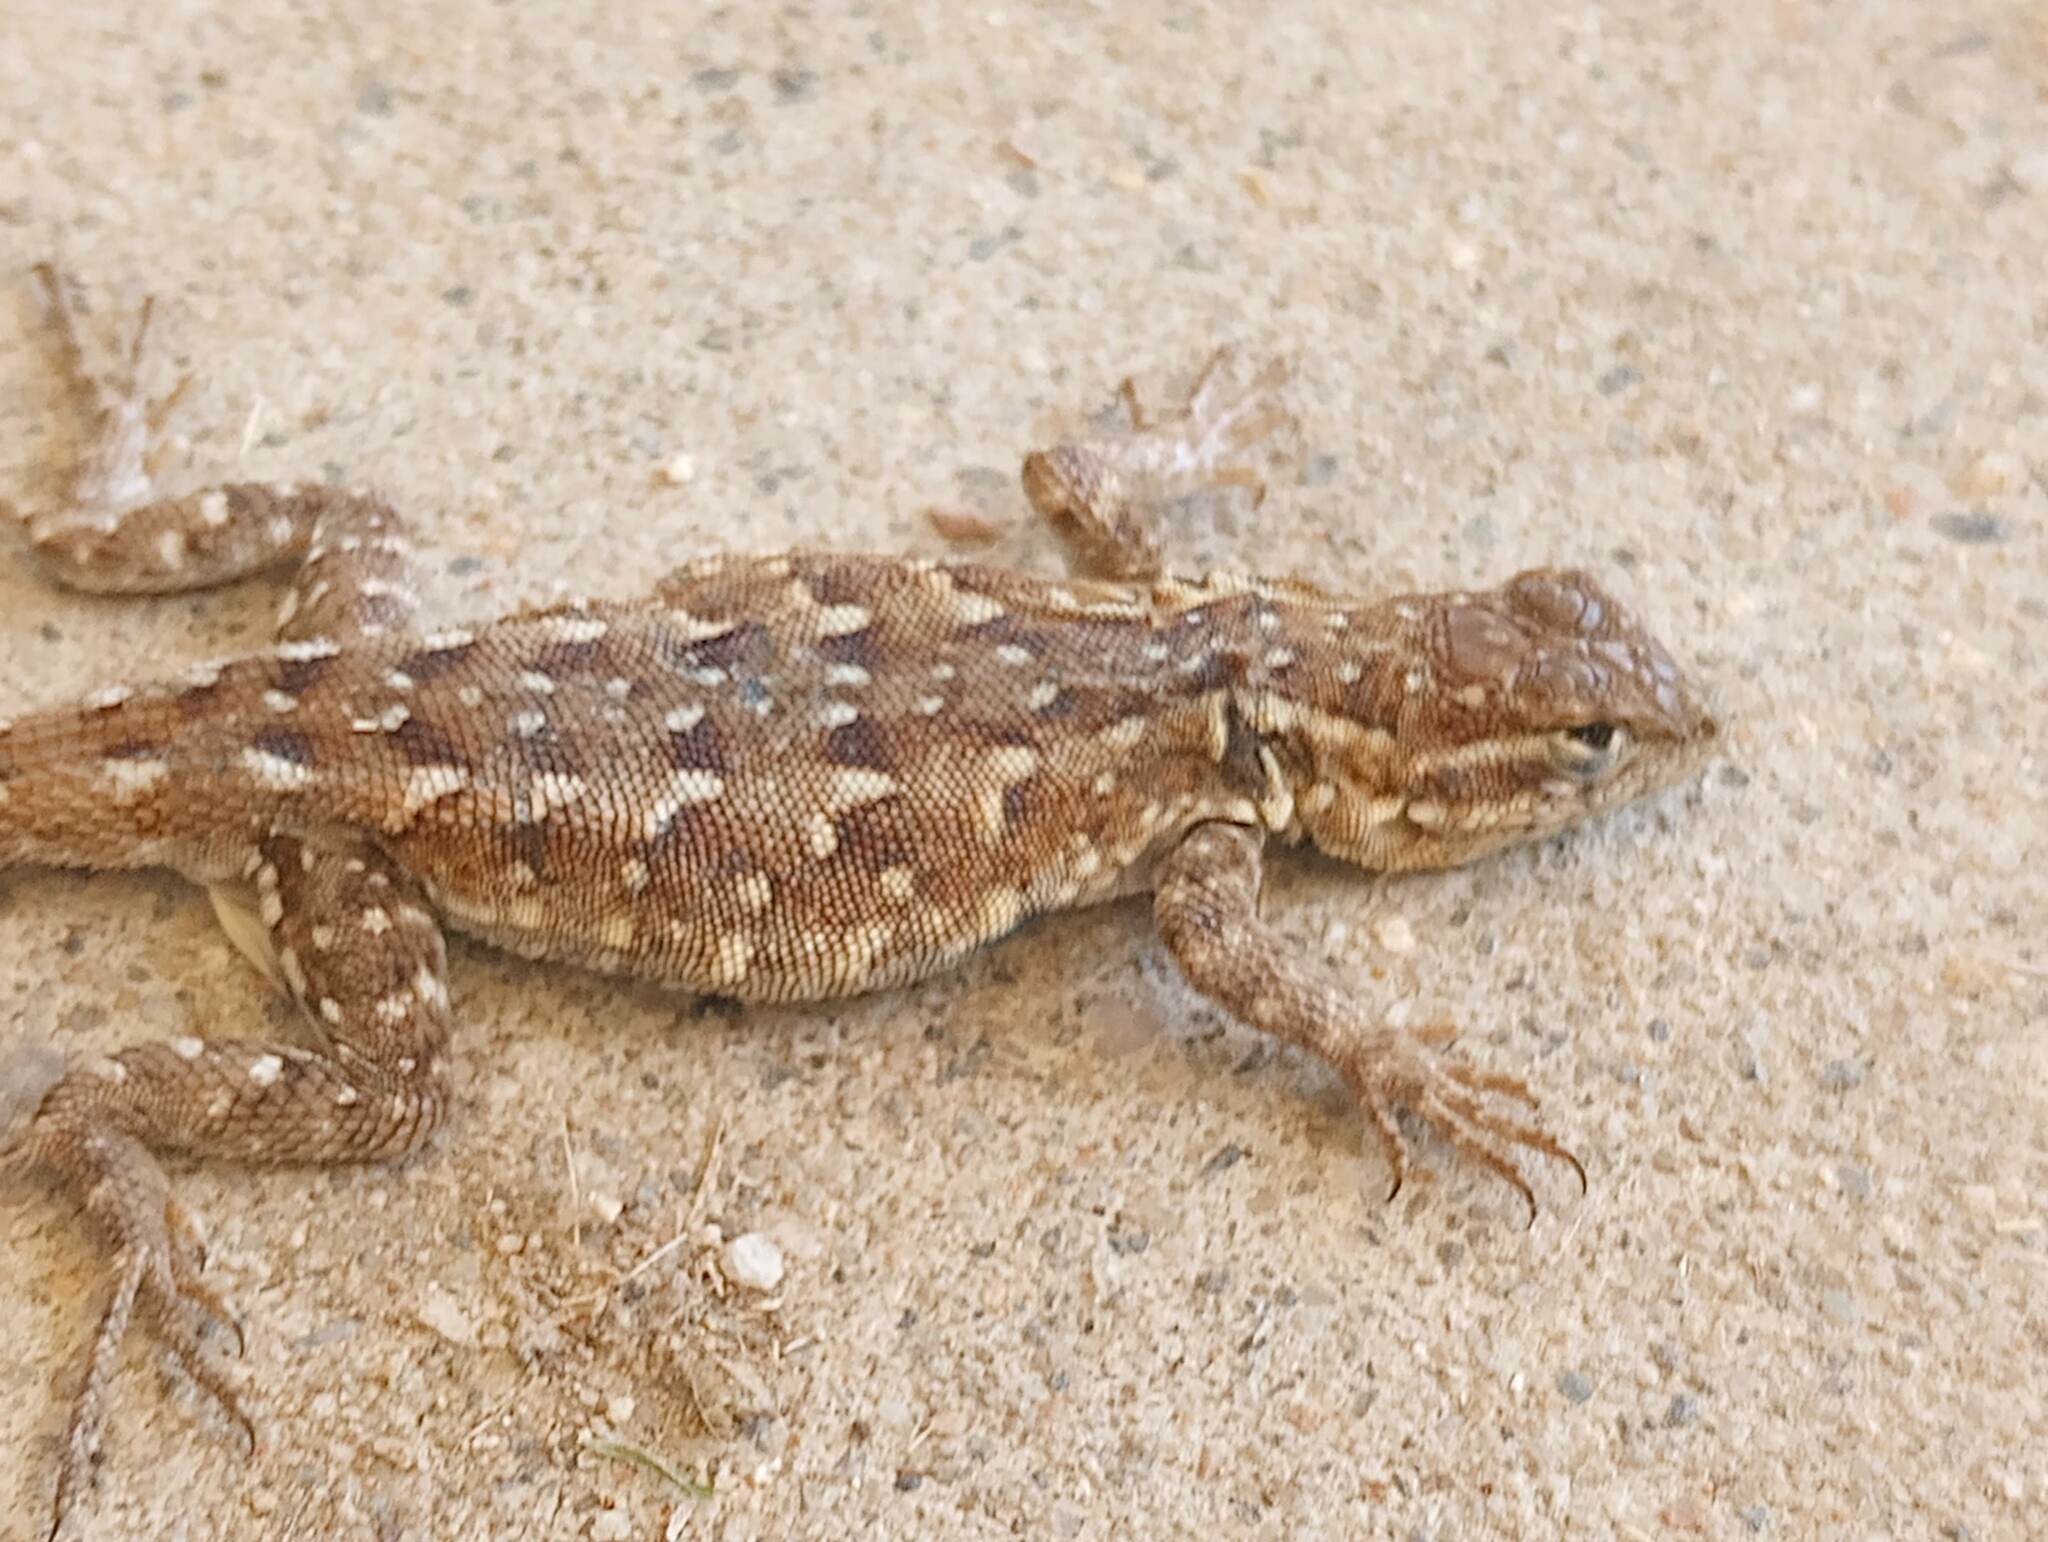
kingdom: Animalia
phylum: Chordata
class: Squamata
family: Phrynosomatidae
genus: Uta
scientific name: Uta stansburiana
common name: Side-blotched lizard
